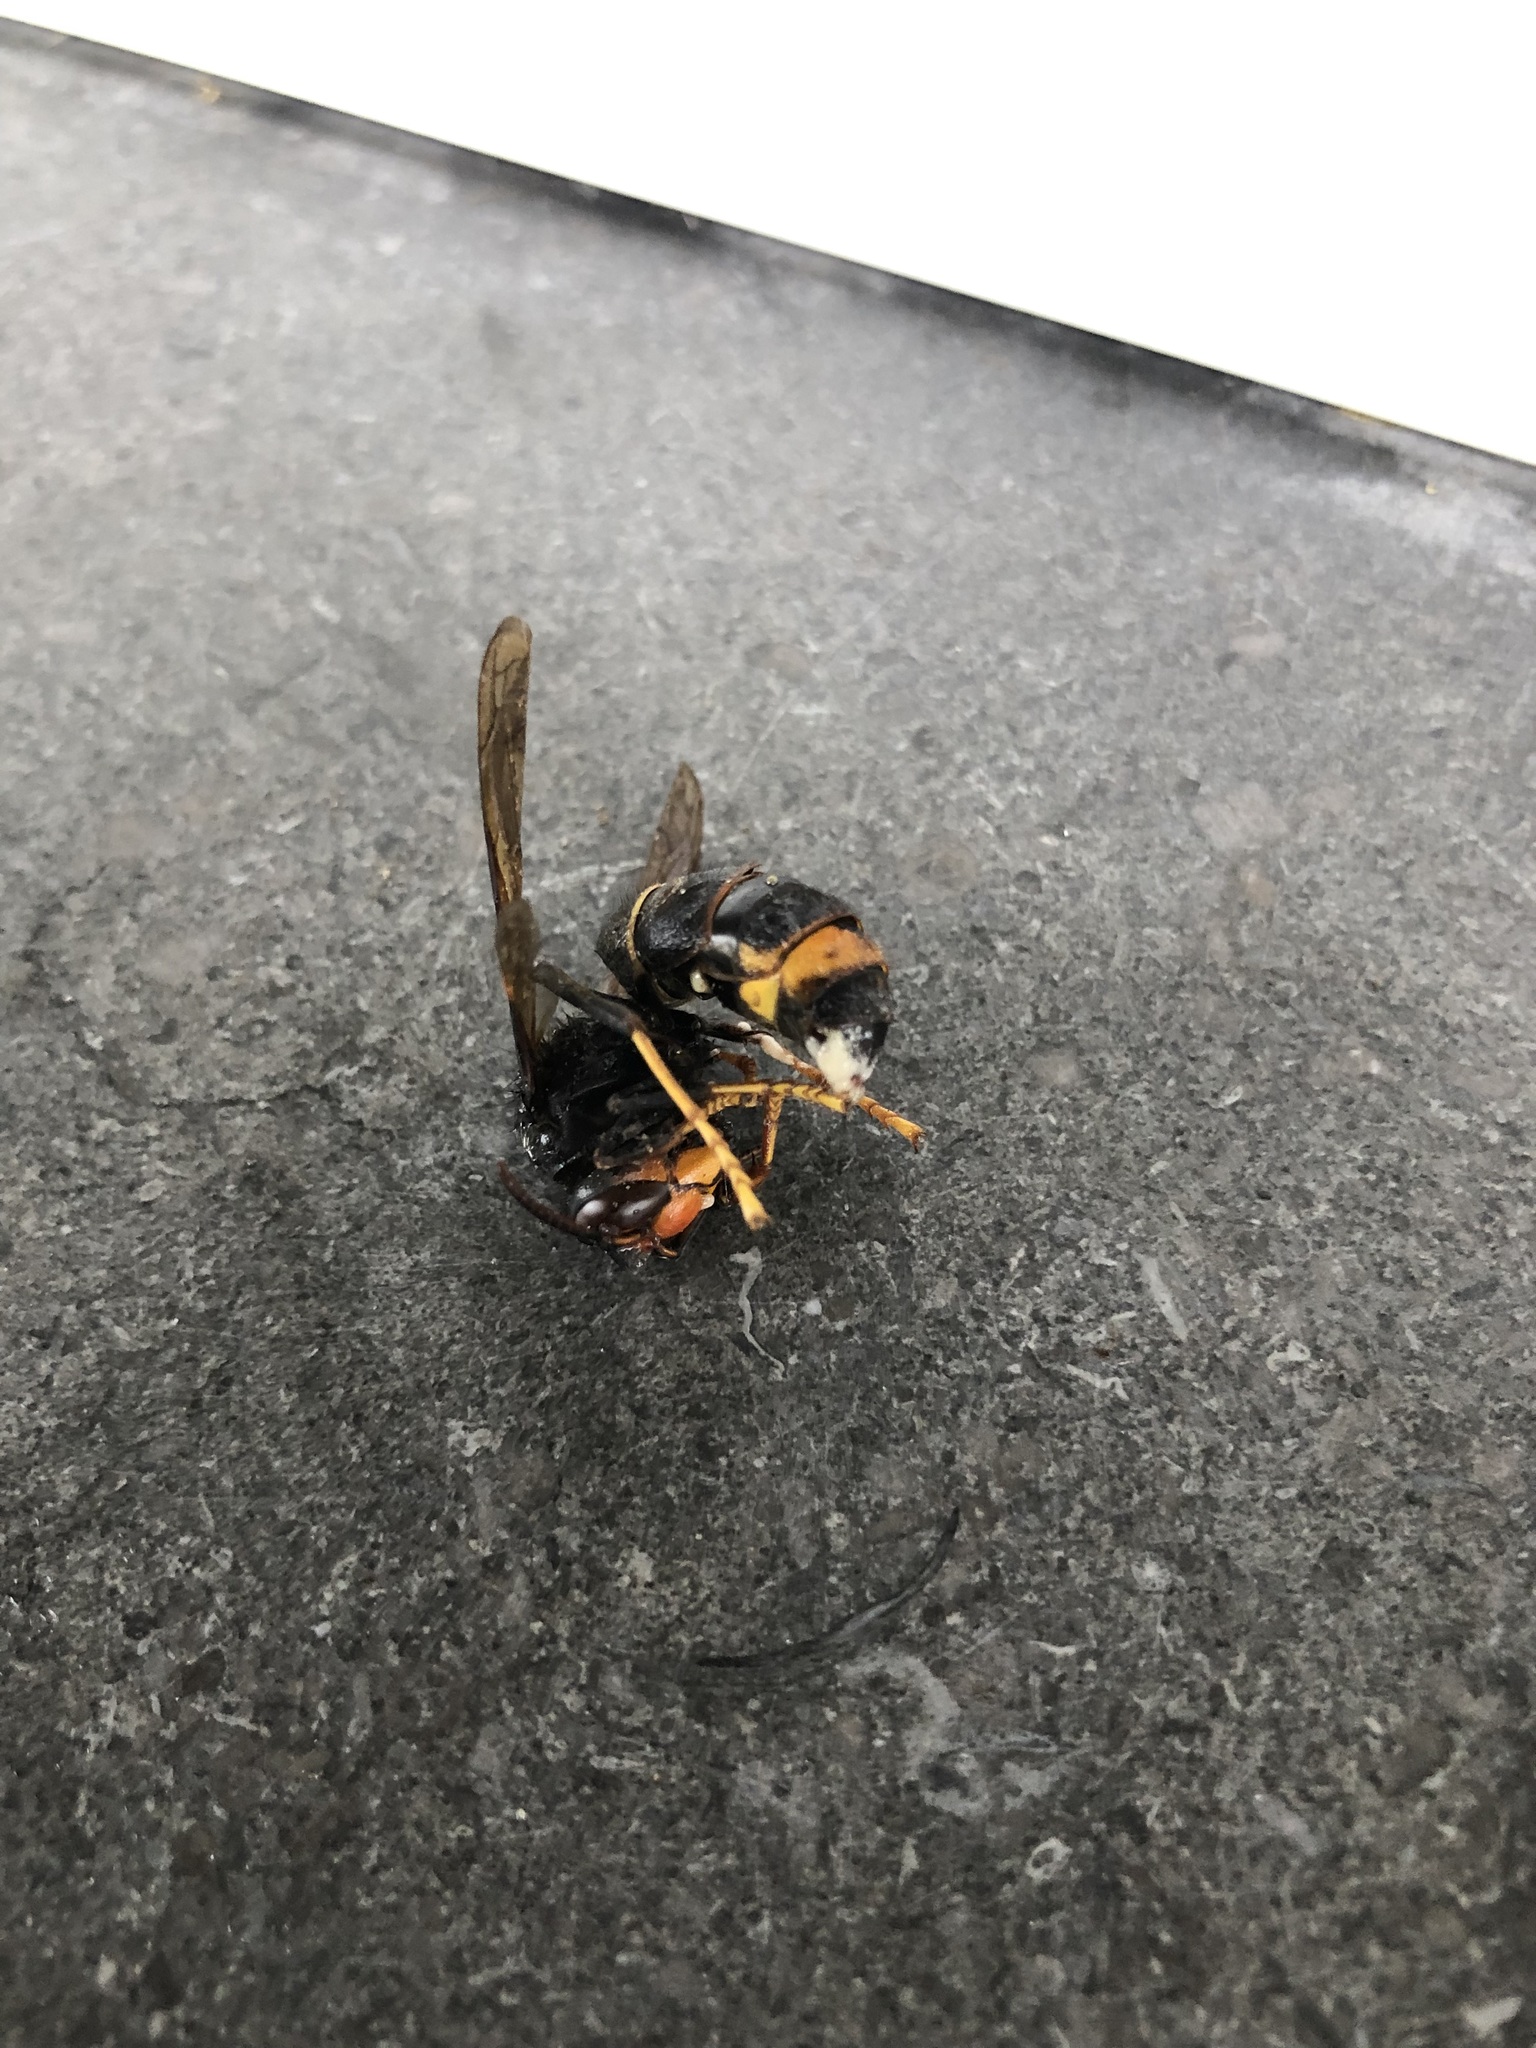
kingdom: Animalia
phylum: Arthropoda
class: Insecta
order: Hymenoptera
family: Vespidae
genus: Vespa
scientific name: Vespa velutina
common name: Asian hornet
